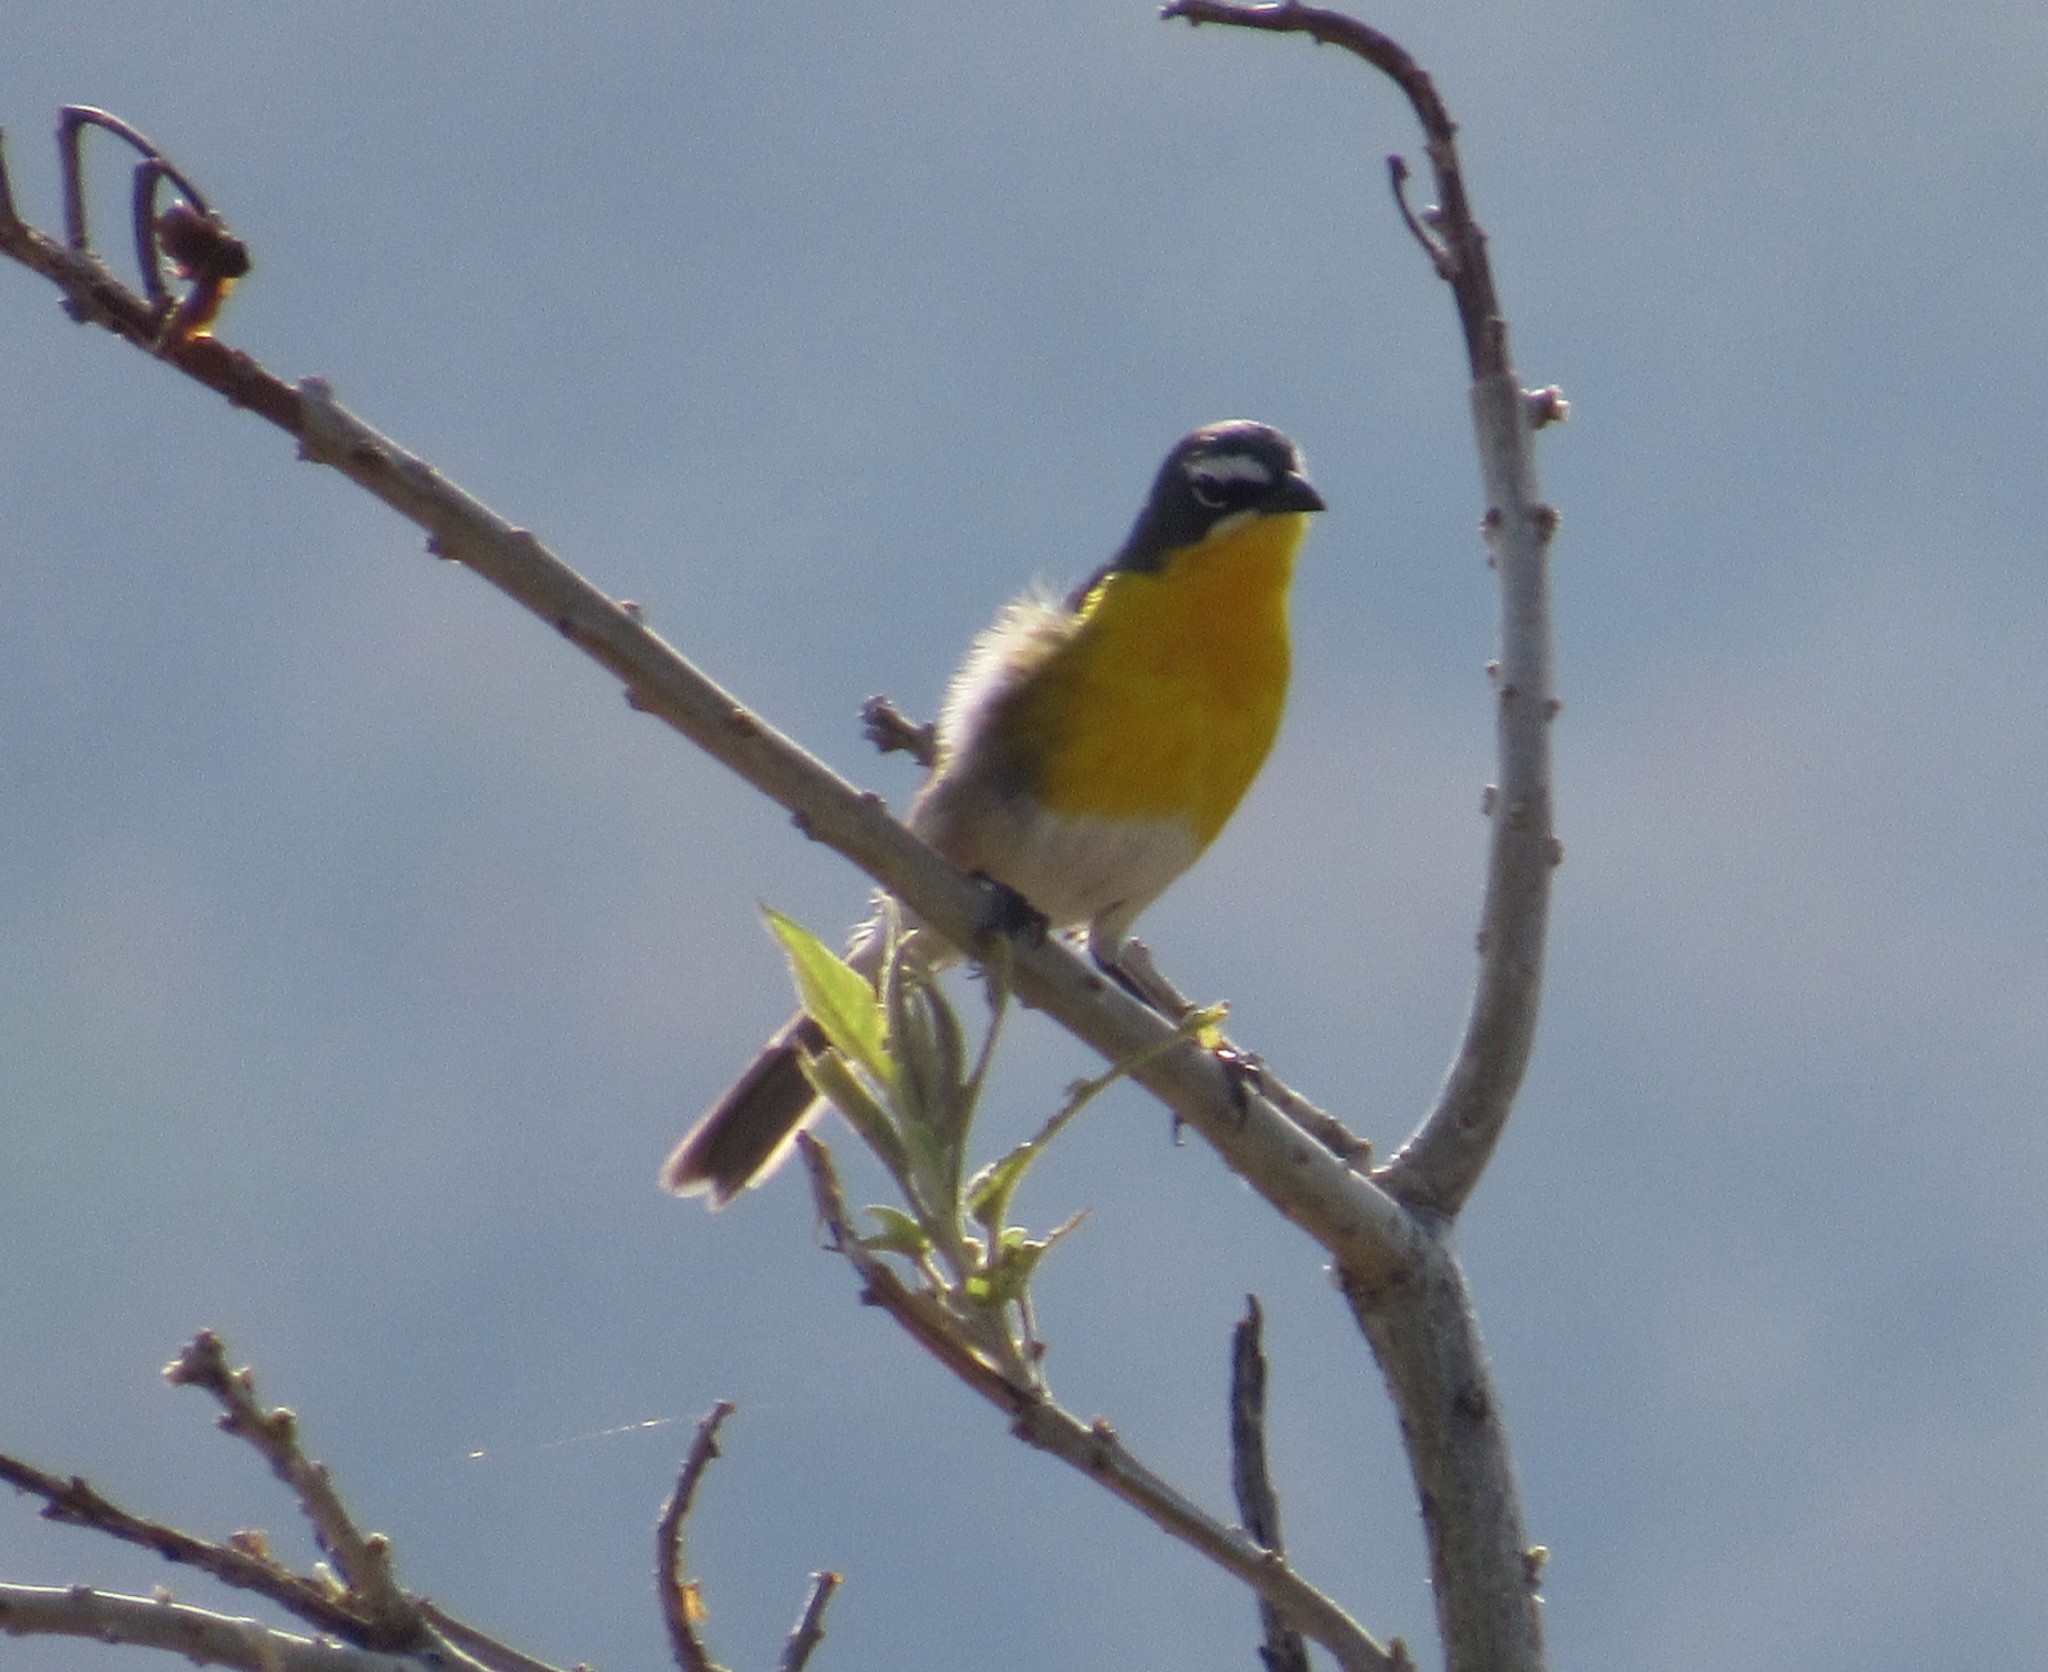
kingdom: Animalia
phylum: Chordata
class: Aves
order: Passeriformes
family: Parulidae
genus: Icteria
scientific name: Icteria virens
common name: Yellow-breasted chat
